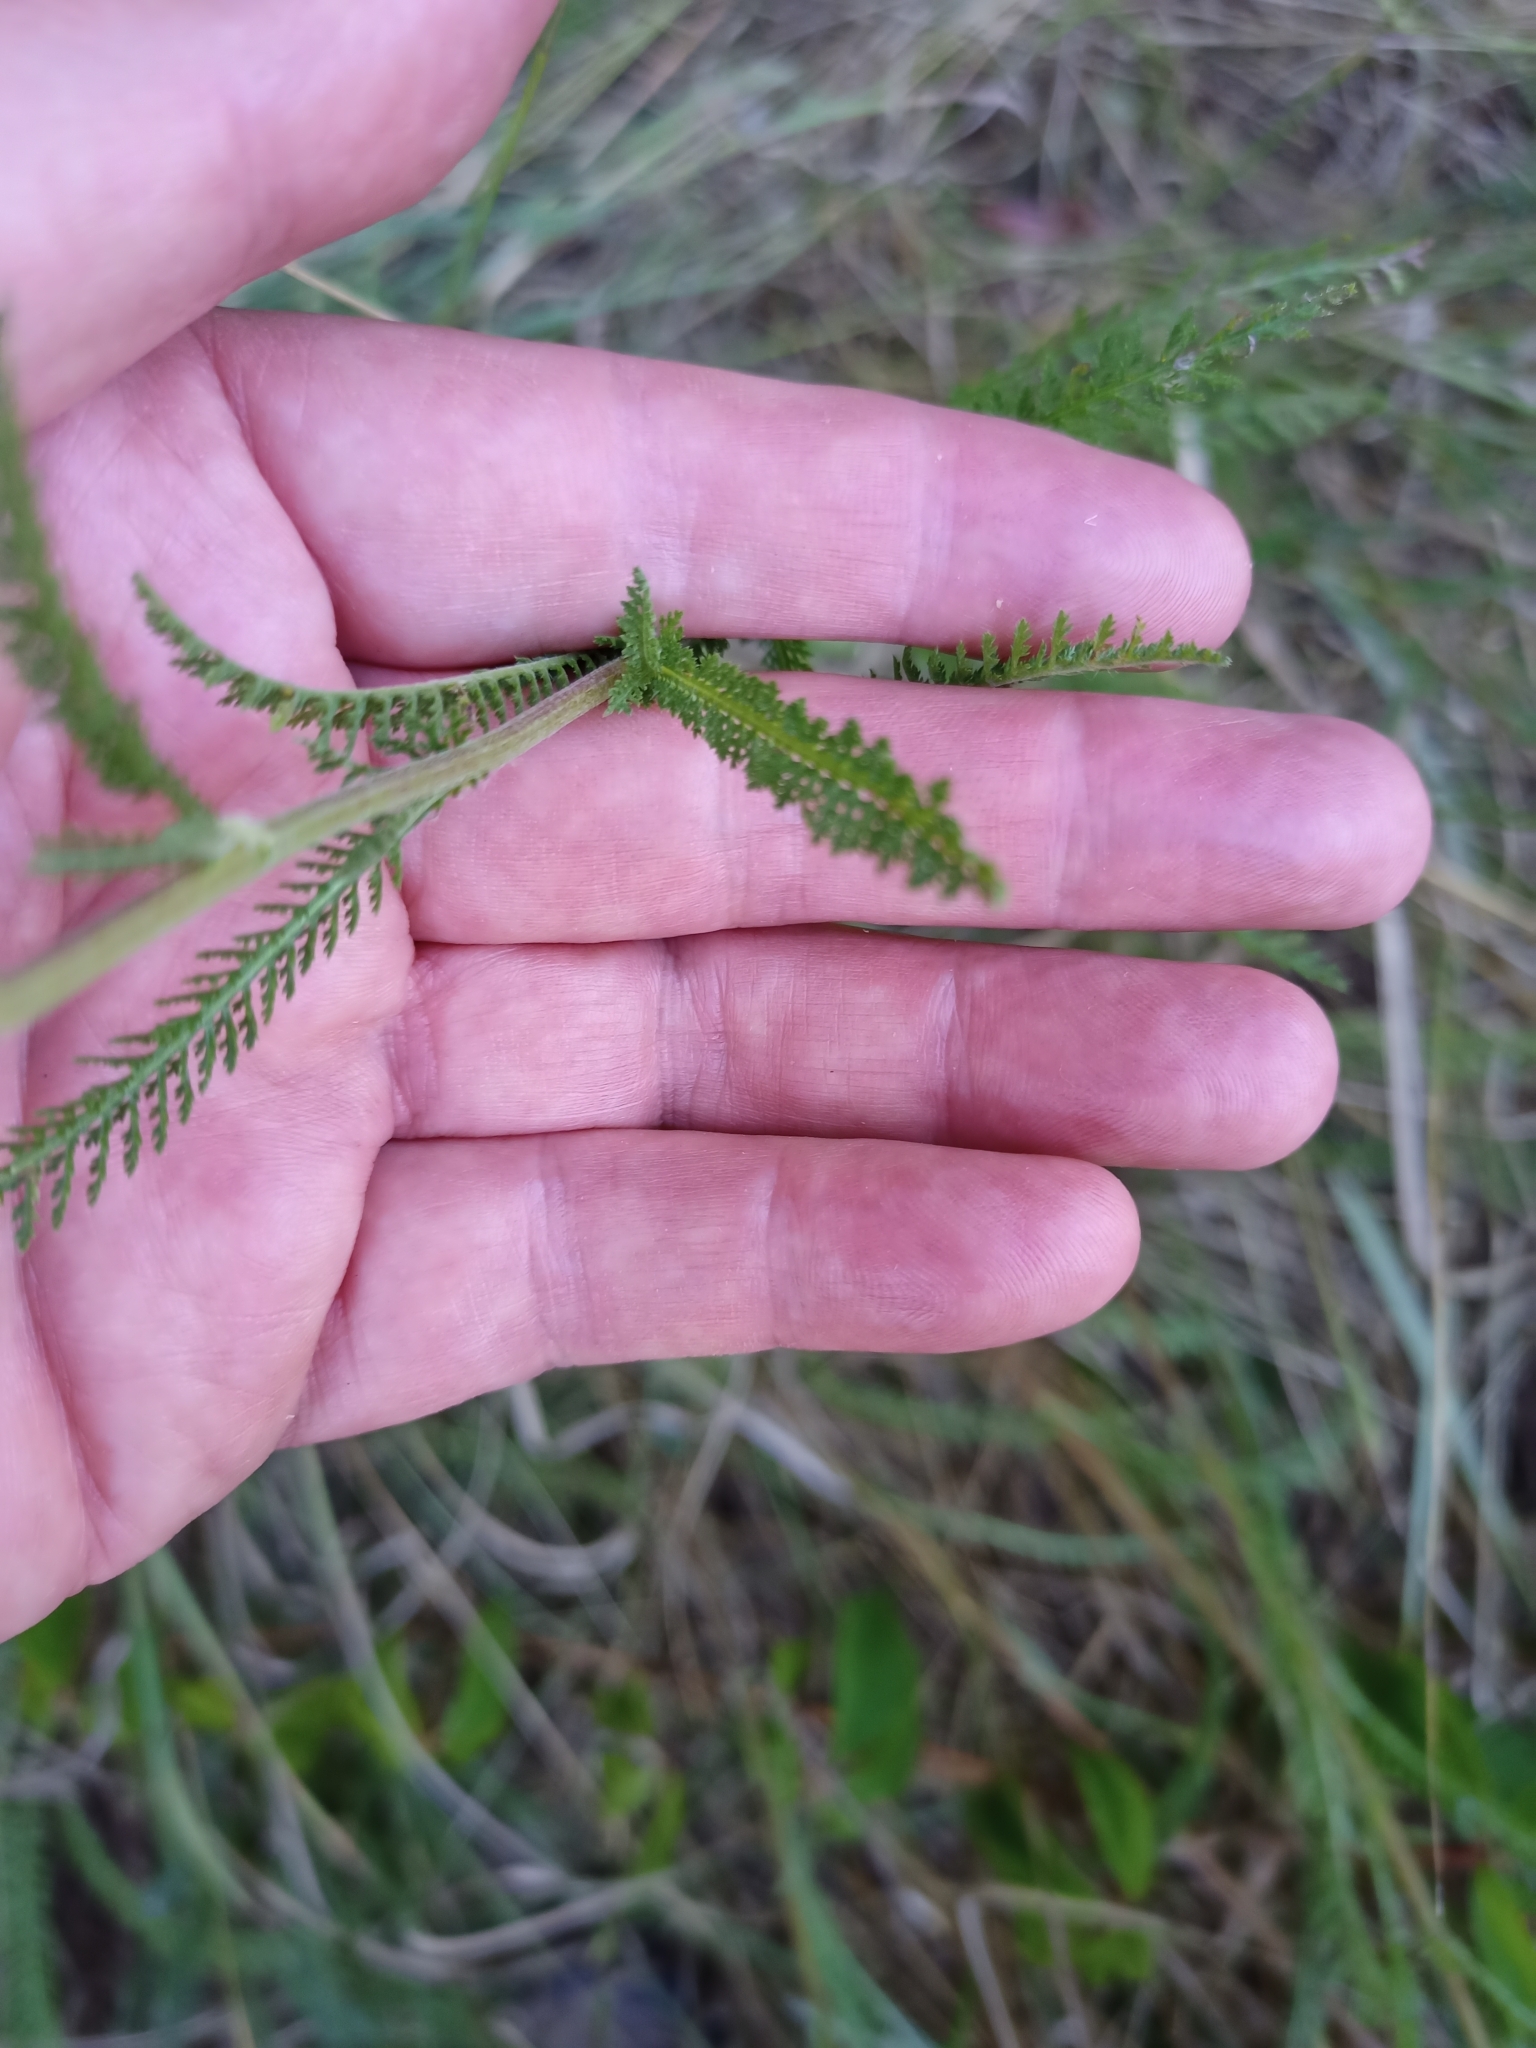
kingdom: Plantae
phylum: Tracheophyta
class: Magnoliopsida
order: Asterales
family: Asteraceae
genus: Achillea
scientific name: Achillea millefolium
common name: Yarrow
